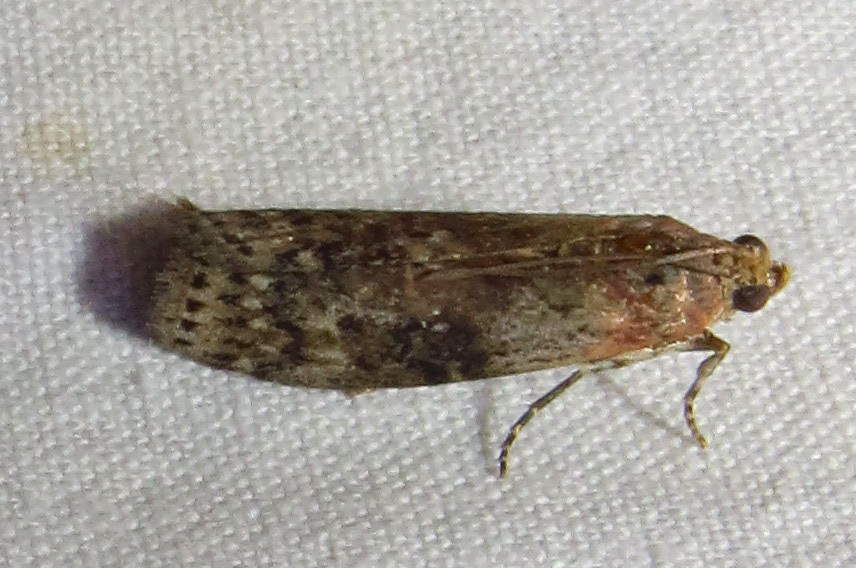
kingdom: Animalia
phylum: Arthropoda
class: Insecta
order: Lepidoptera
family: Pyralidae
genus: Sciota
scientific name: Sciota celtidella
